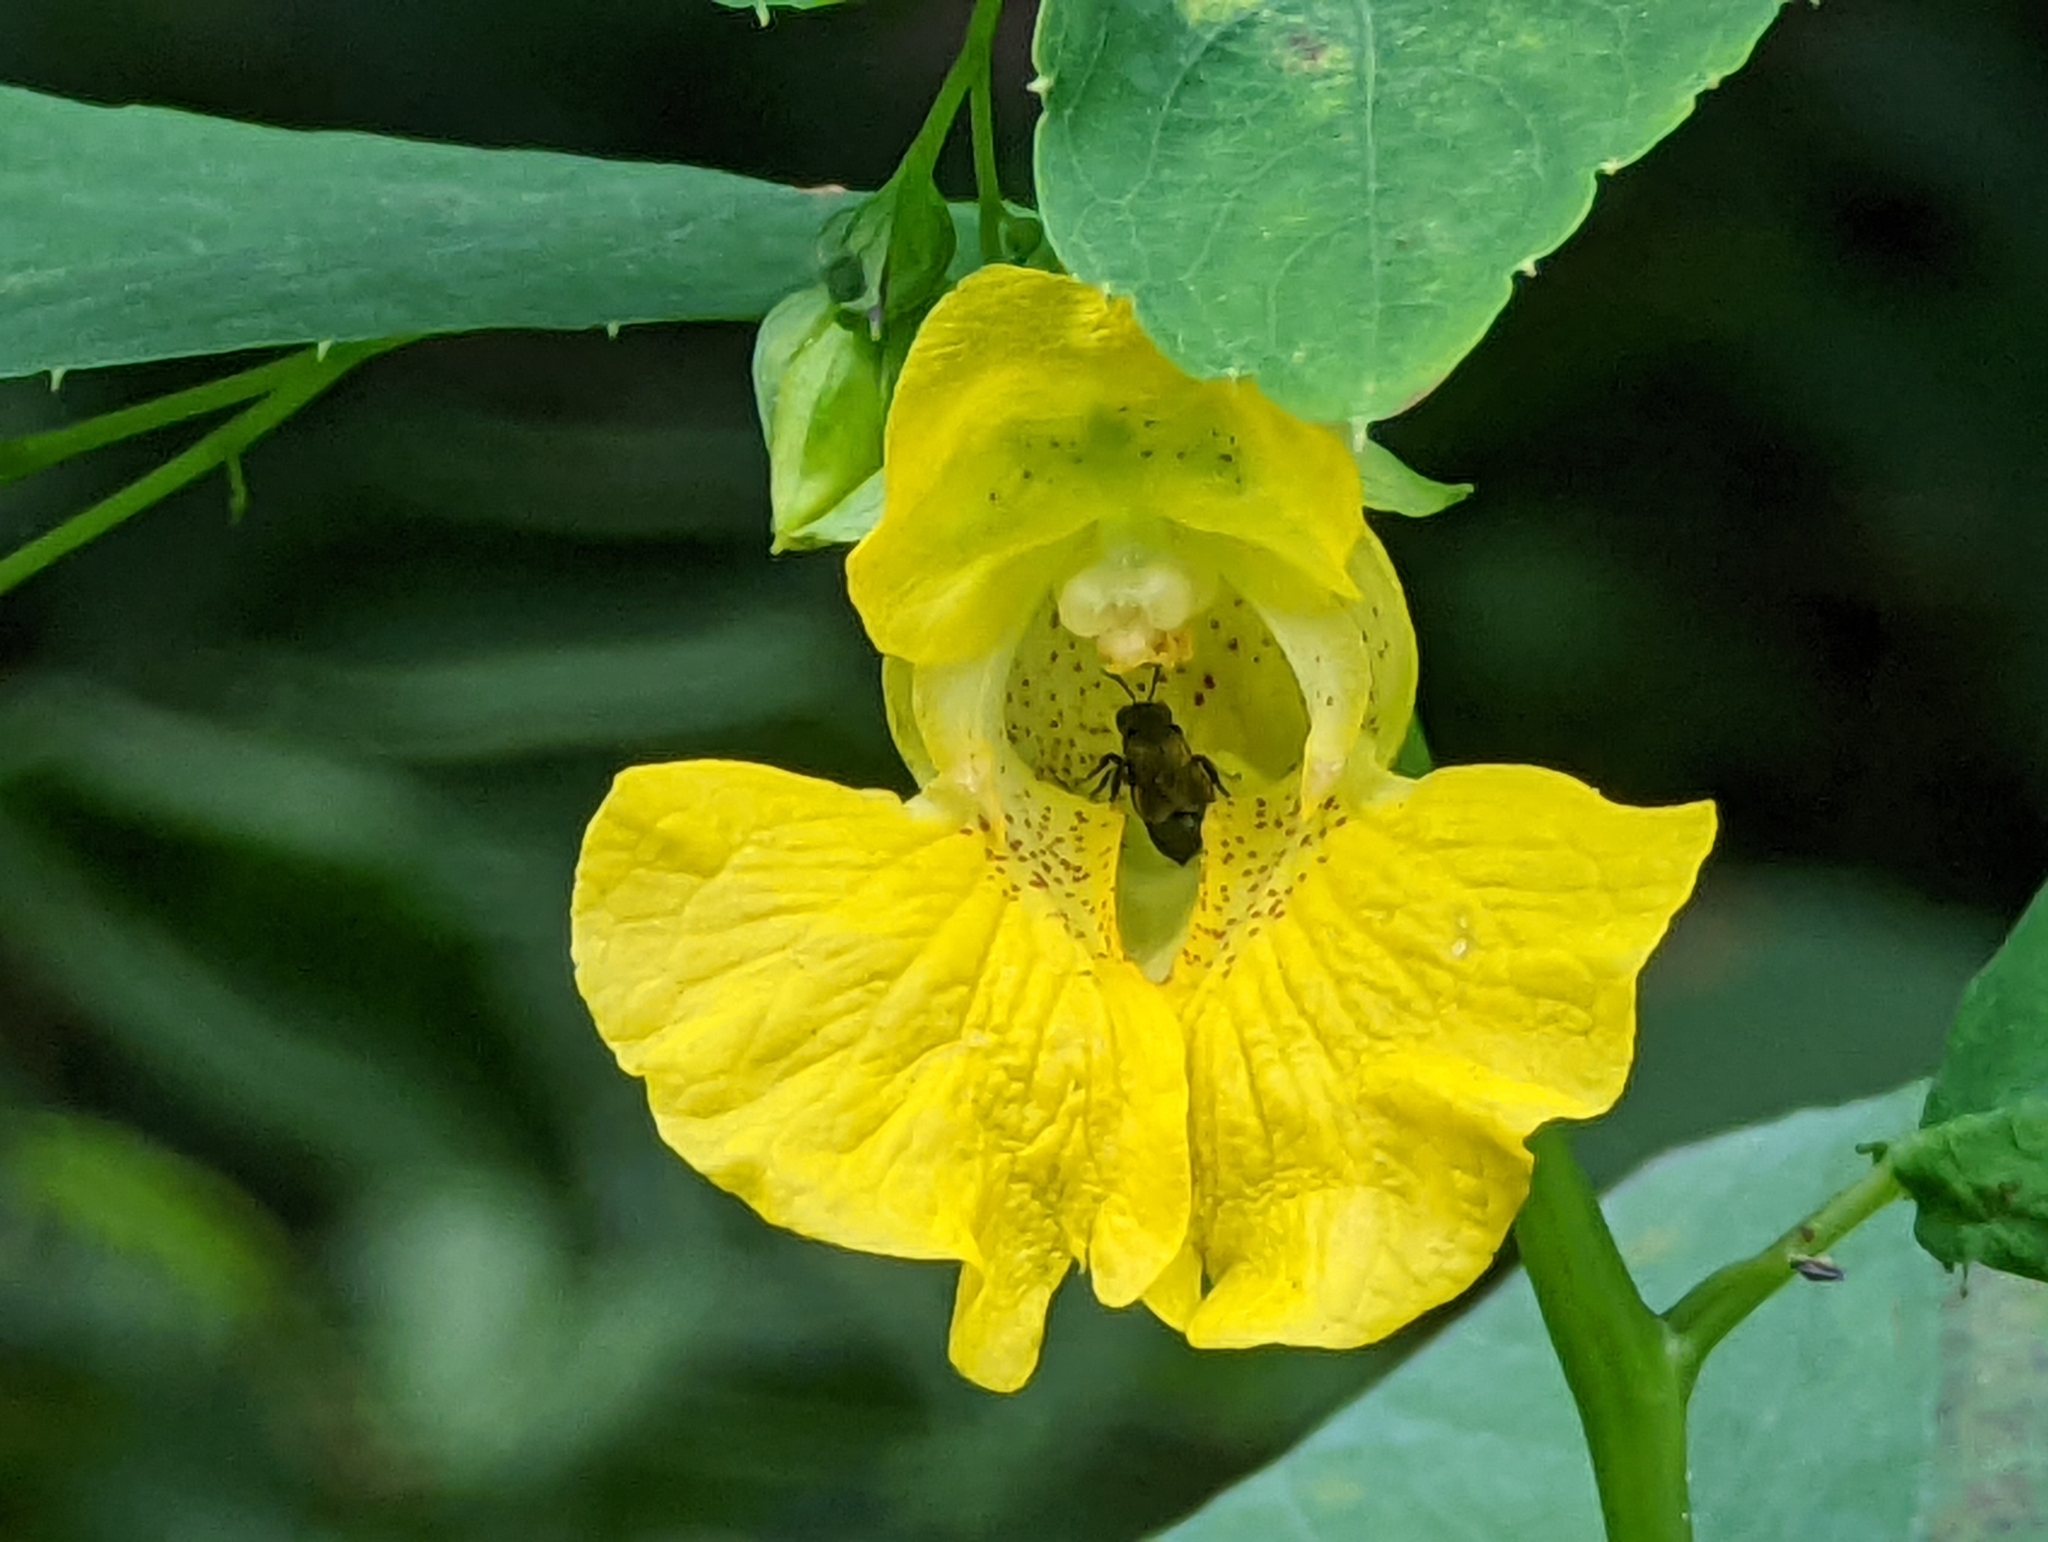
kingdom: Plantae
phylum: Tracheophyta
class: Magnoliopsida
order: Ericales
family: Balsaminaceae
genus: Impatiens
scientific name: Impatiens pallida
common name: Pale snapweed
